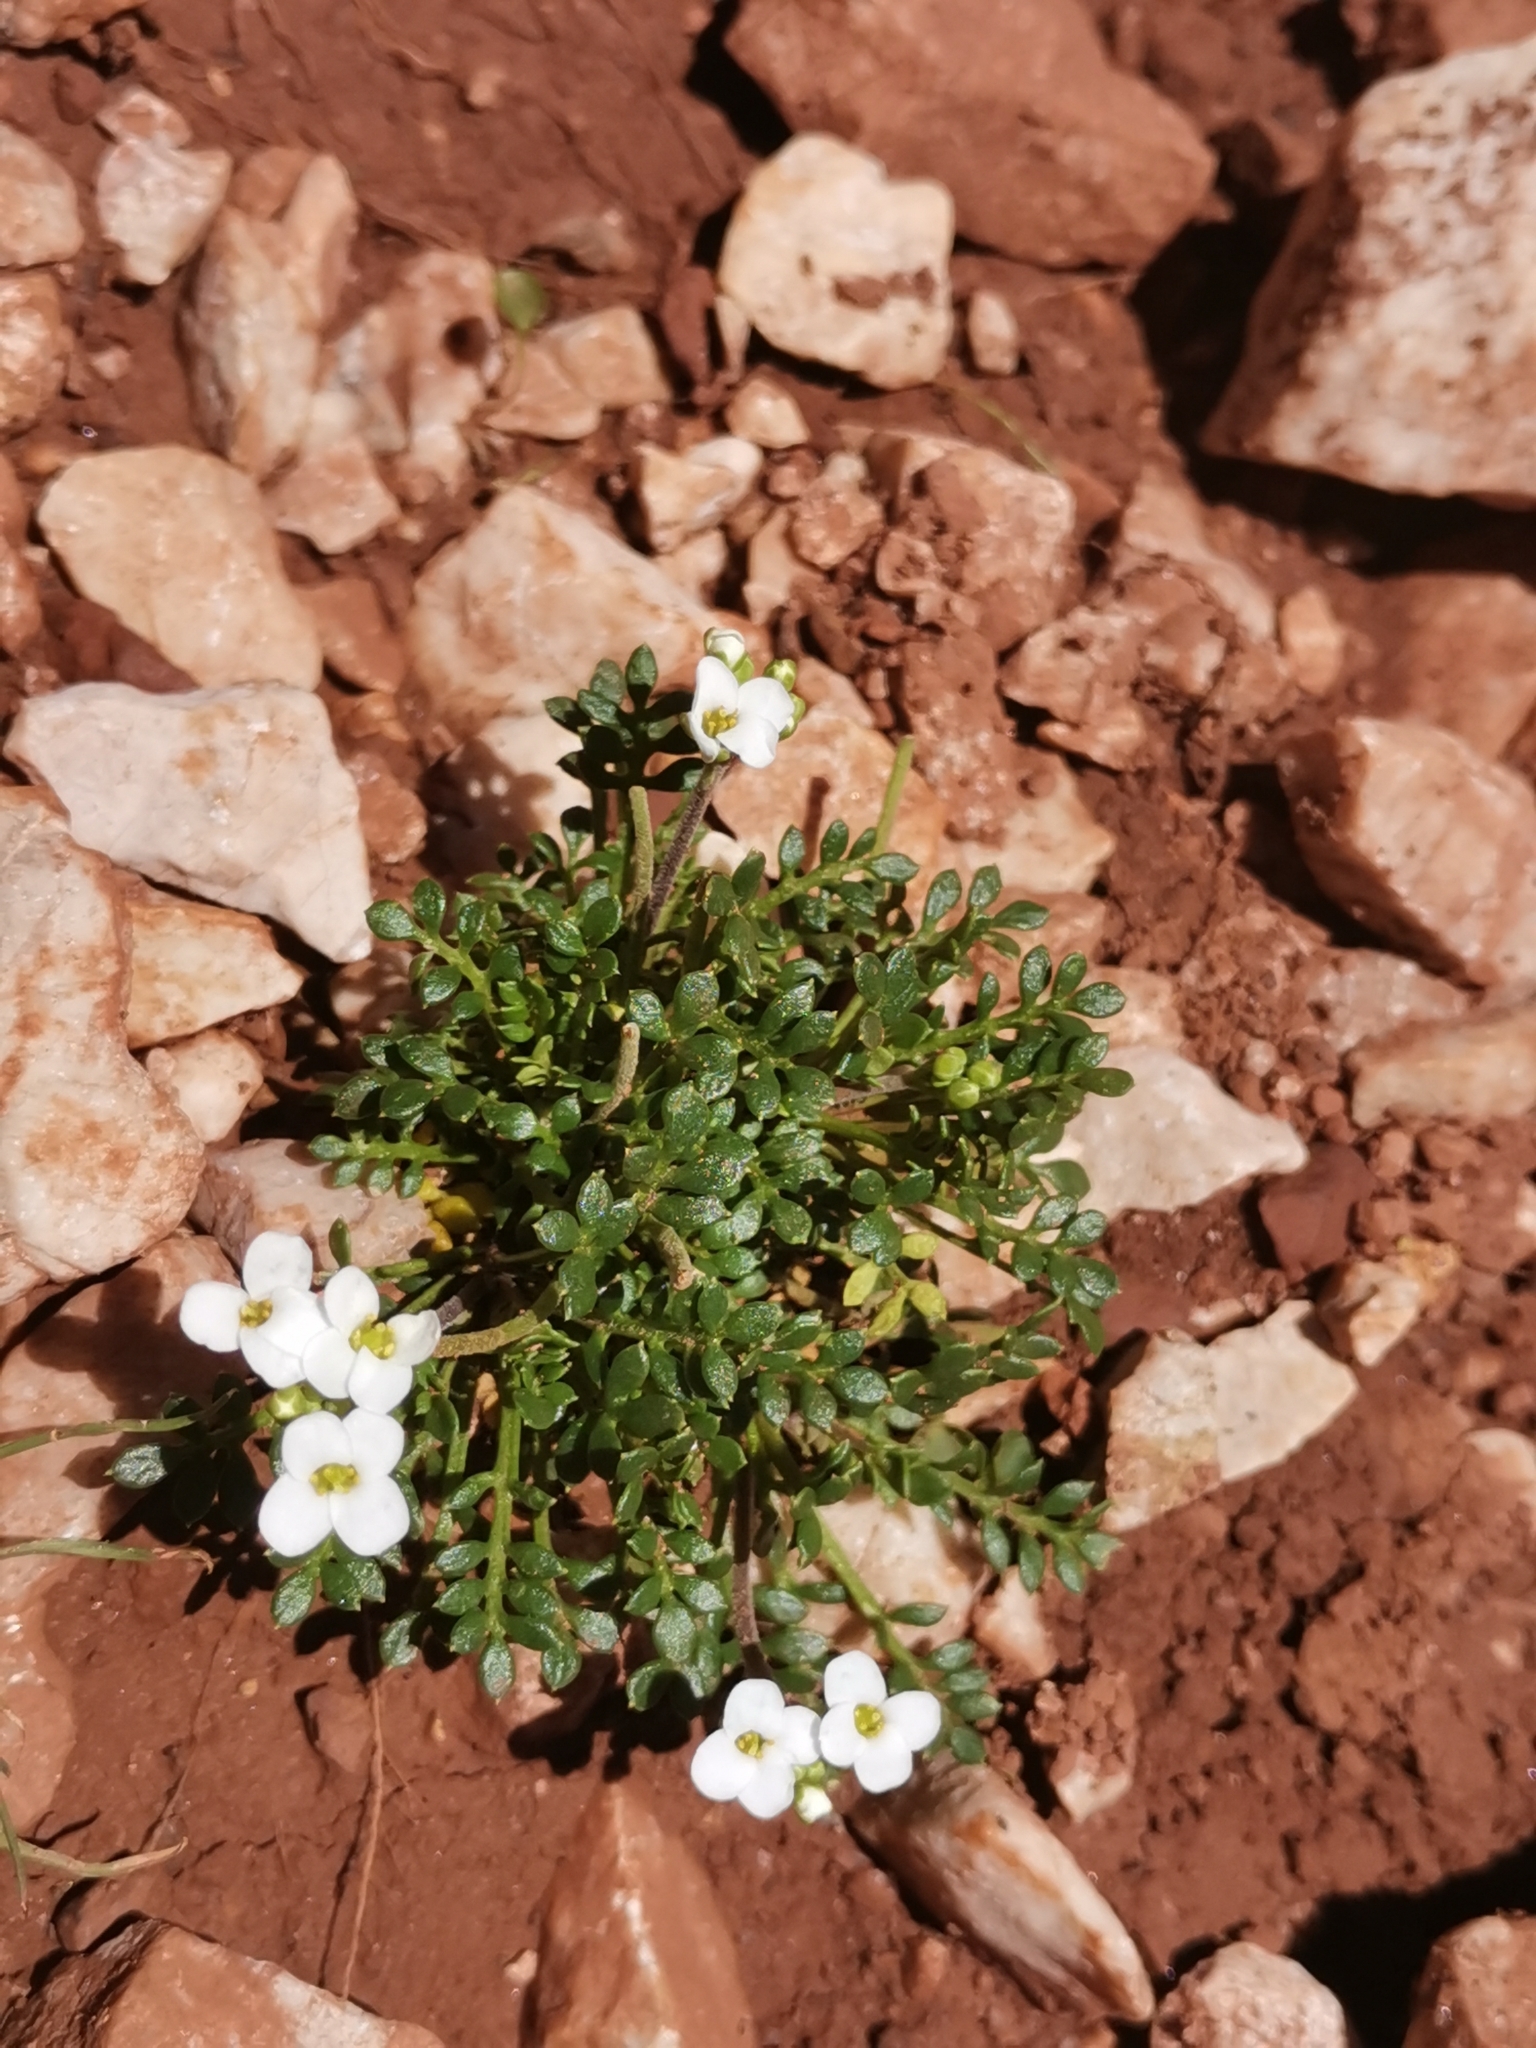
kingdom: Plantae
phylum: Tracheophyta
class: Magnoliopsida
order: Brassicales
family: Brassicaceae
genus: Hornungia
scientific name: Hornungia alpina
